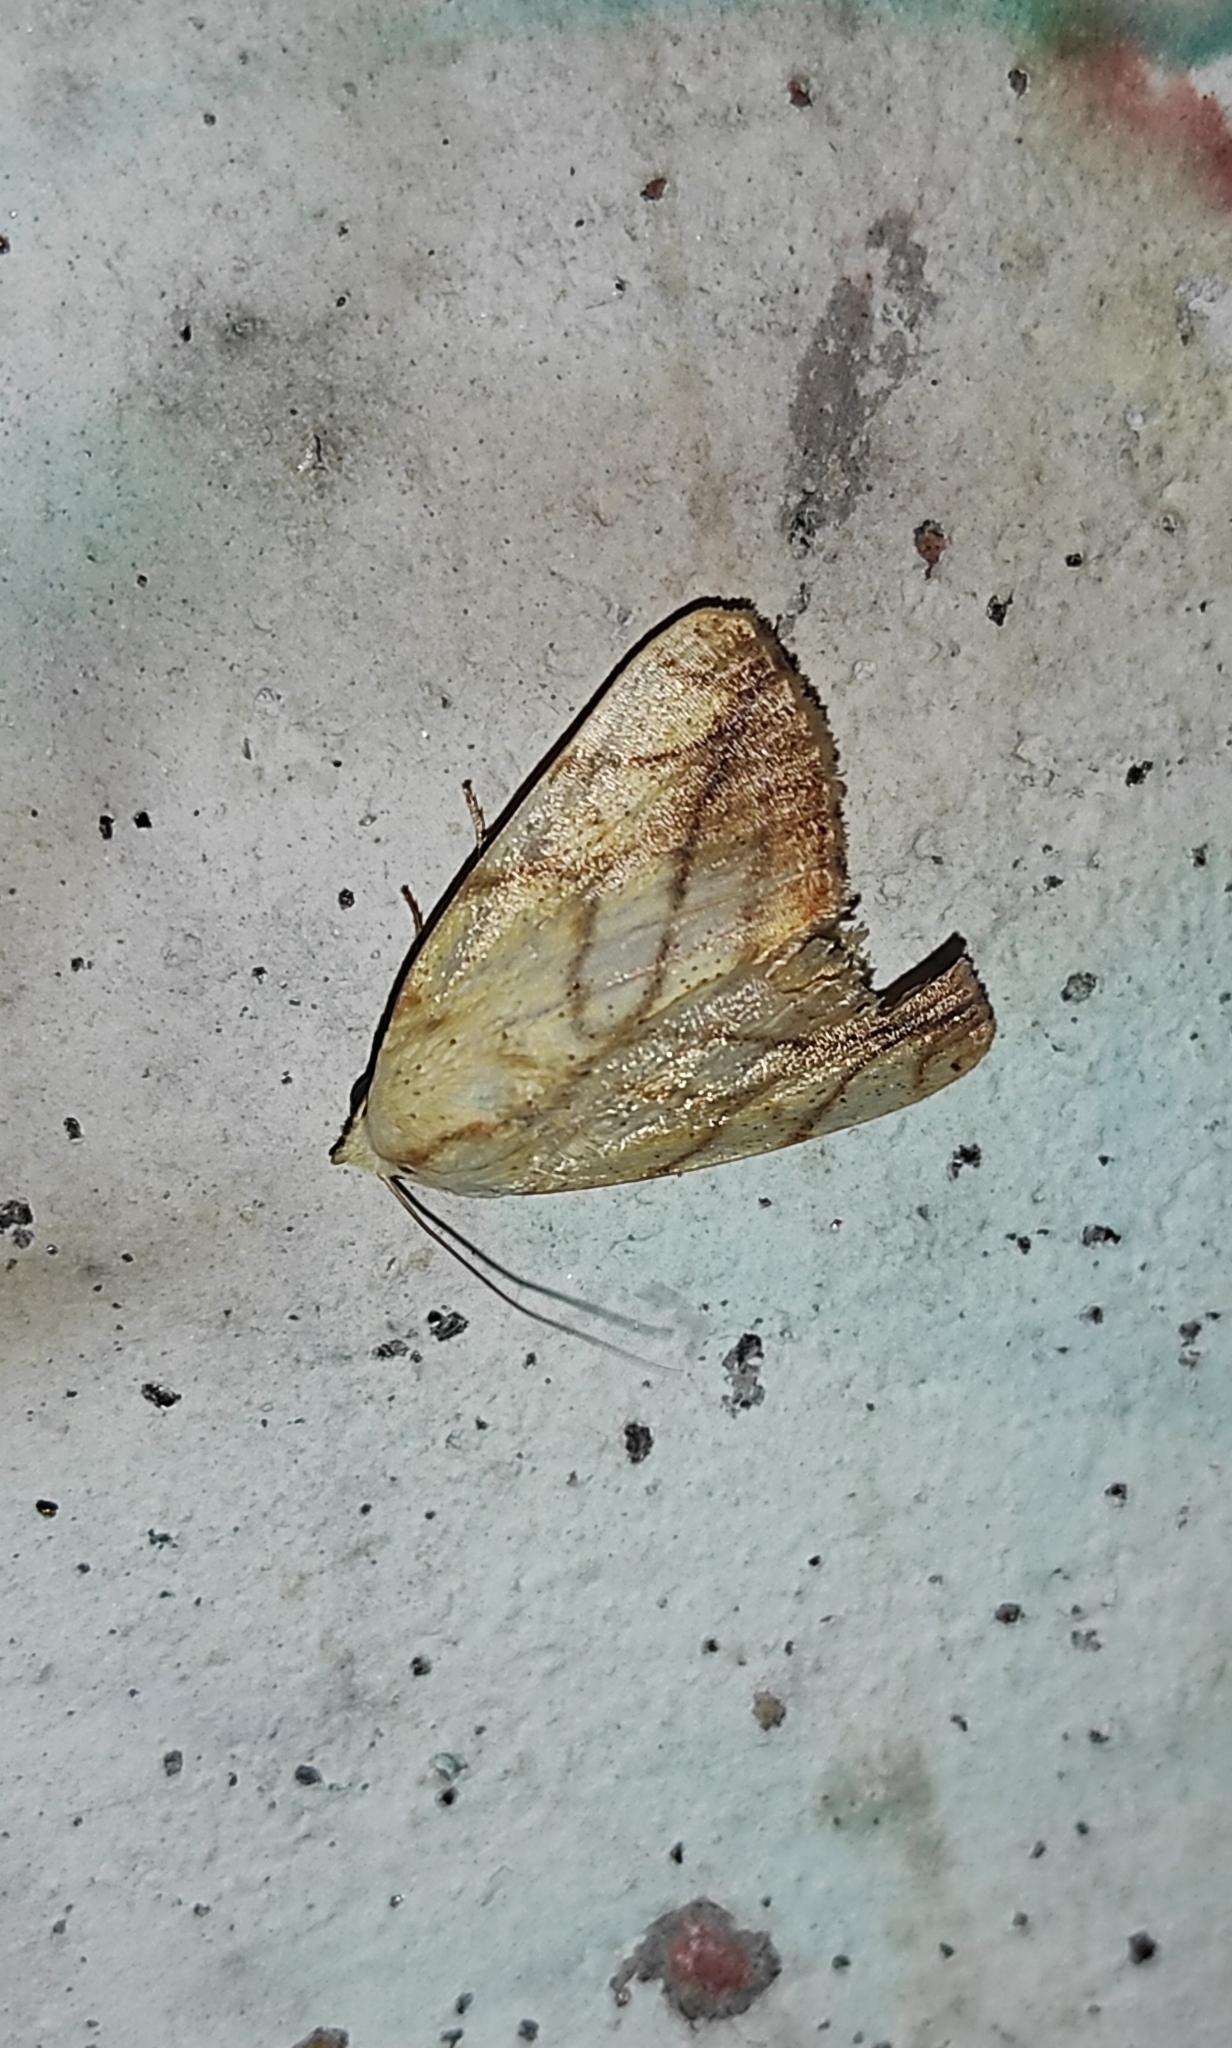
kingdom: Animalia
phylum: Arthropoda
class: Insecta
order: Lepidoptera
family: Nolidae
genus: Xanthodes
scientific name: Xanthodes transversa
